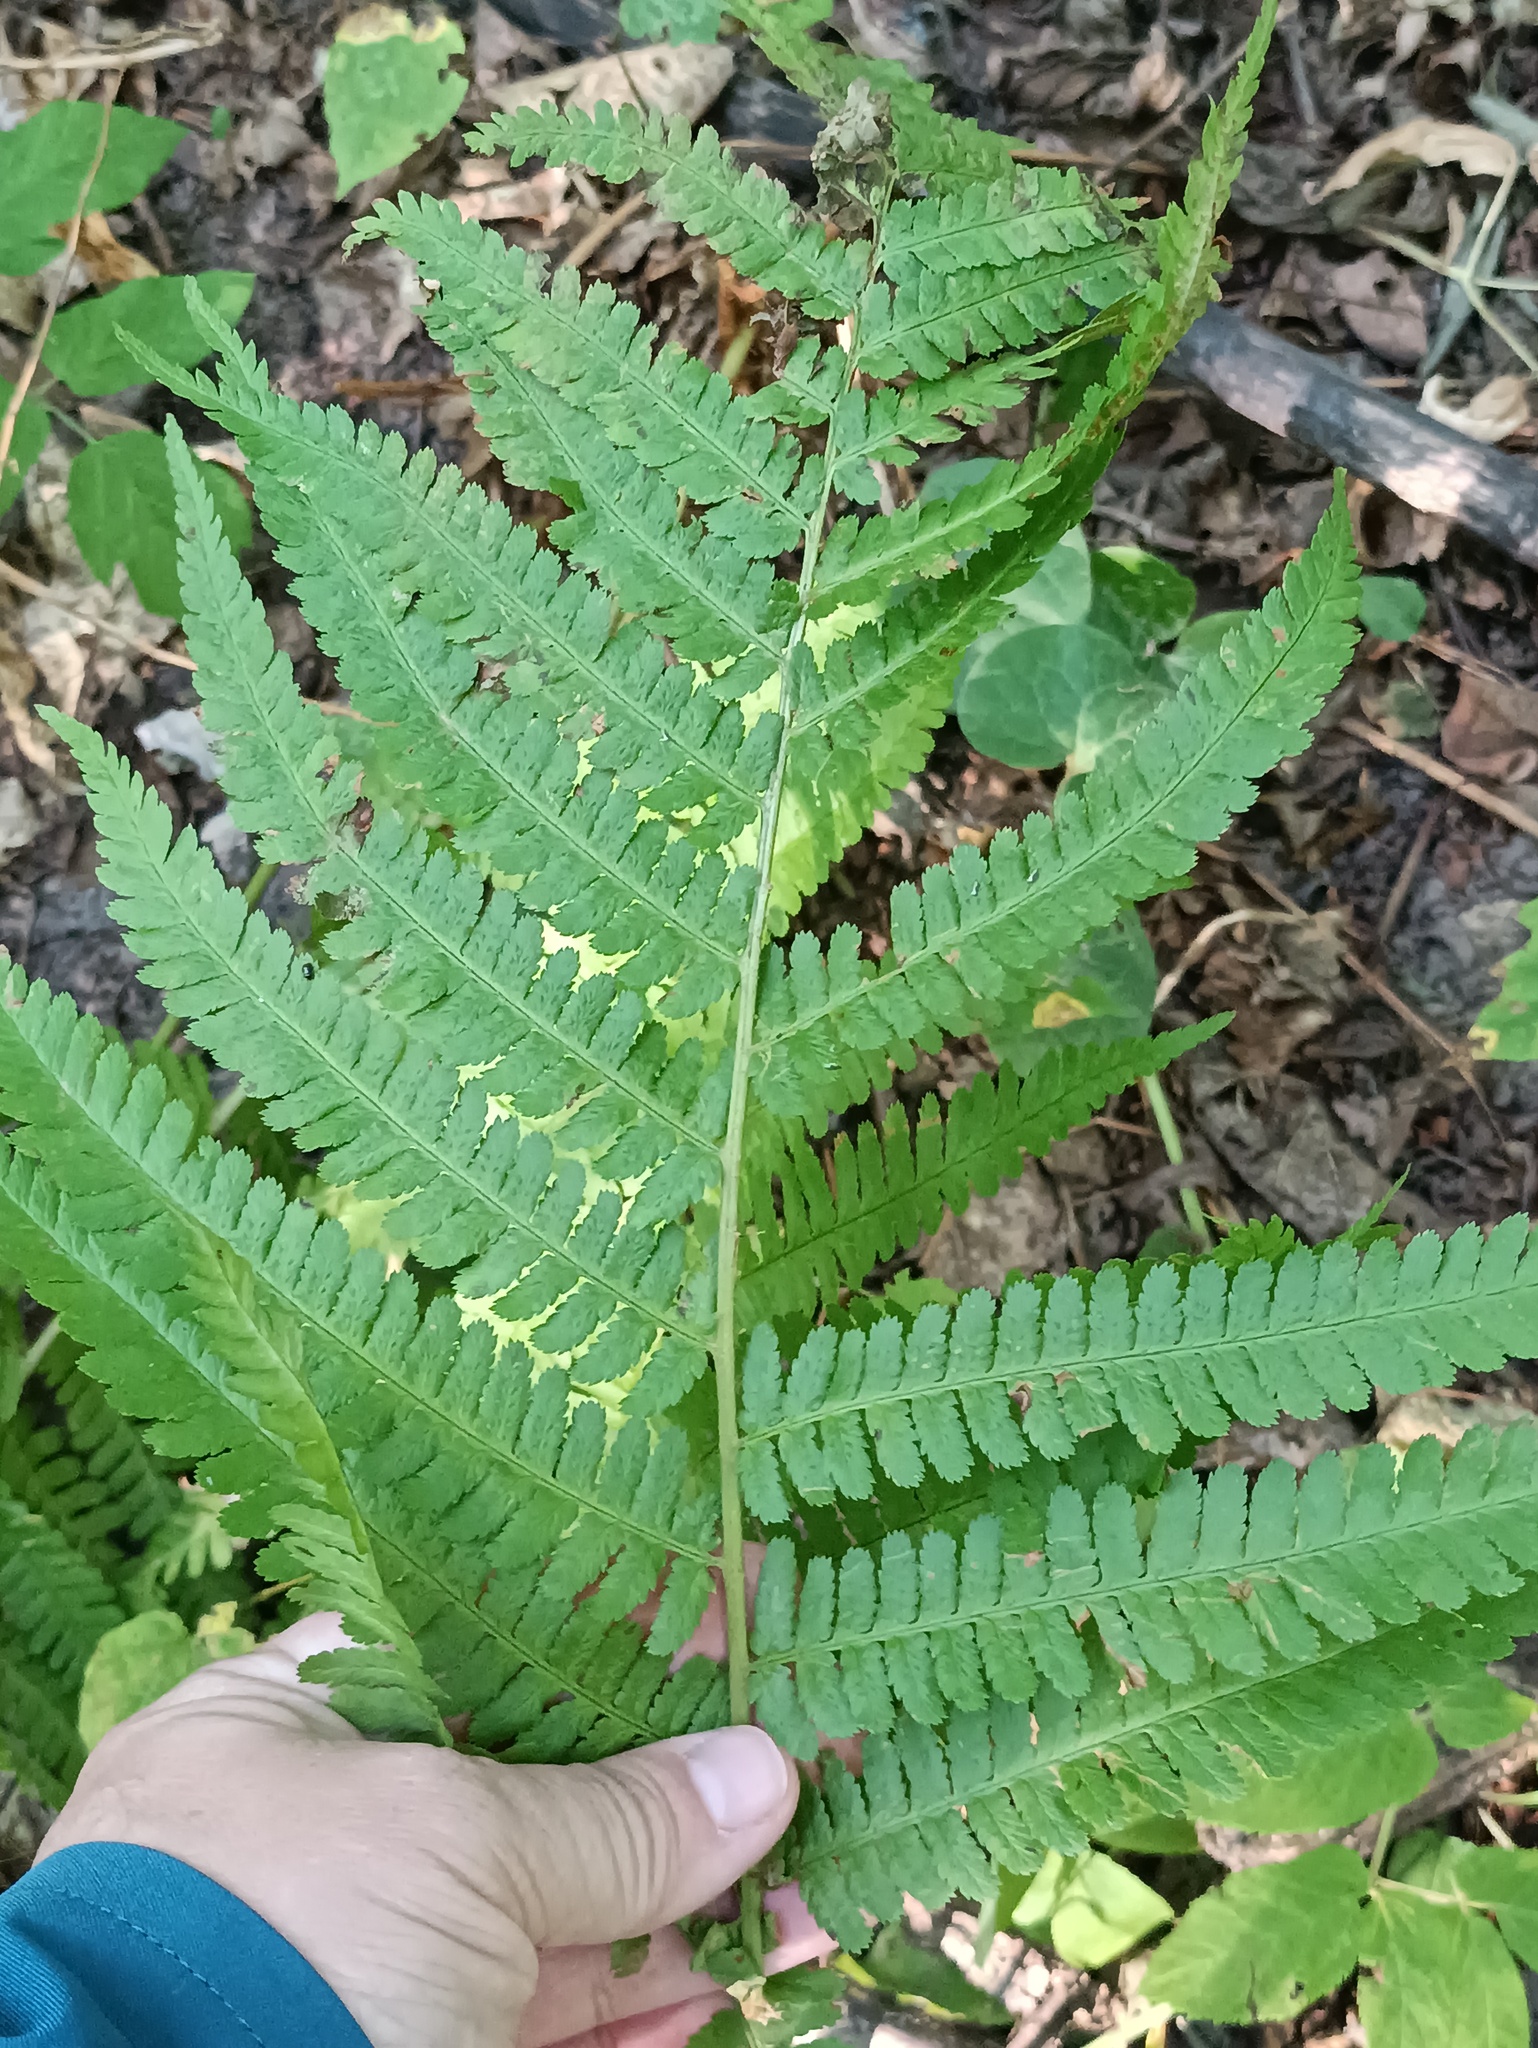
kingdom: Plantae
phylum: Tracheophyta
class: Polypodiopsida
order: Polypodiales
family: Dryopteridaceae
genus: Dryopteris
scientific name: Dryopteris filix-mas
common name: Male fern
